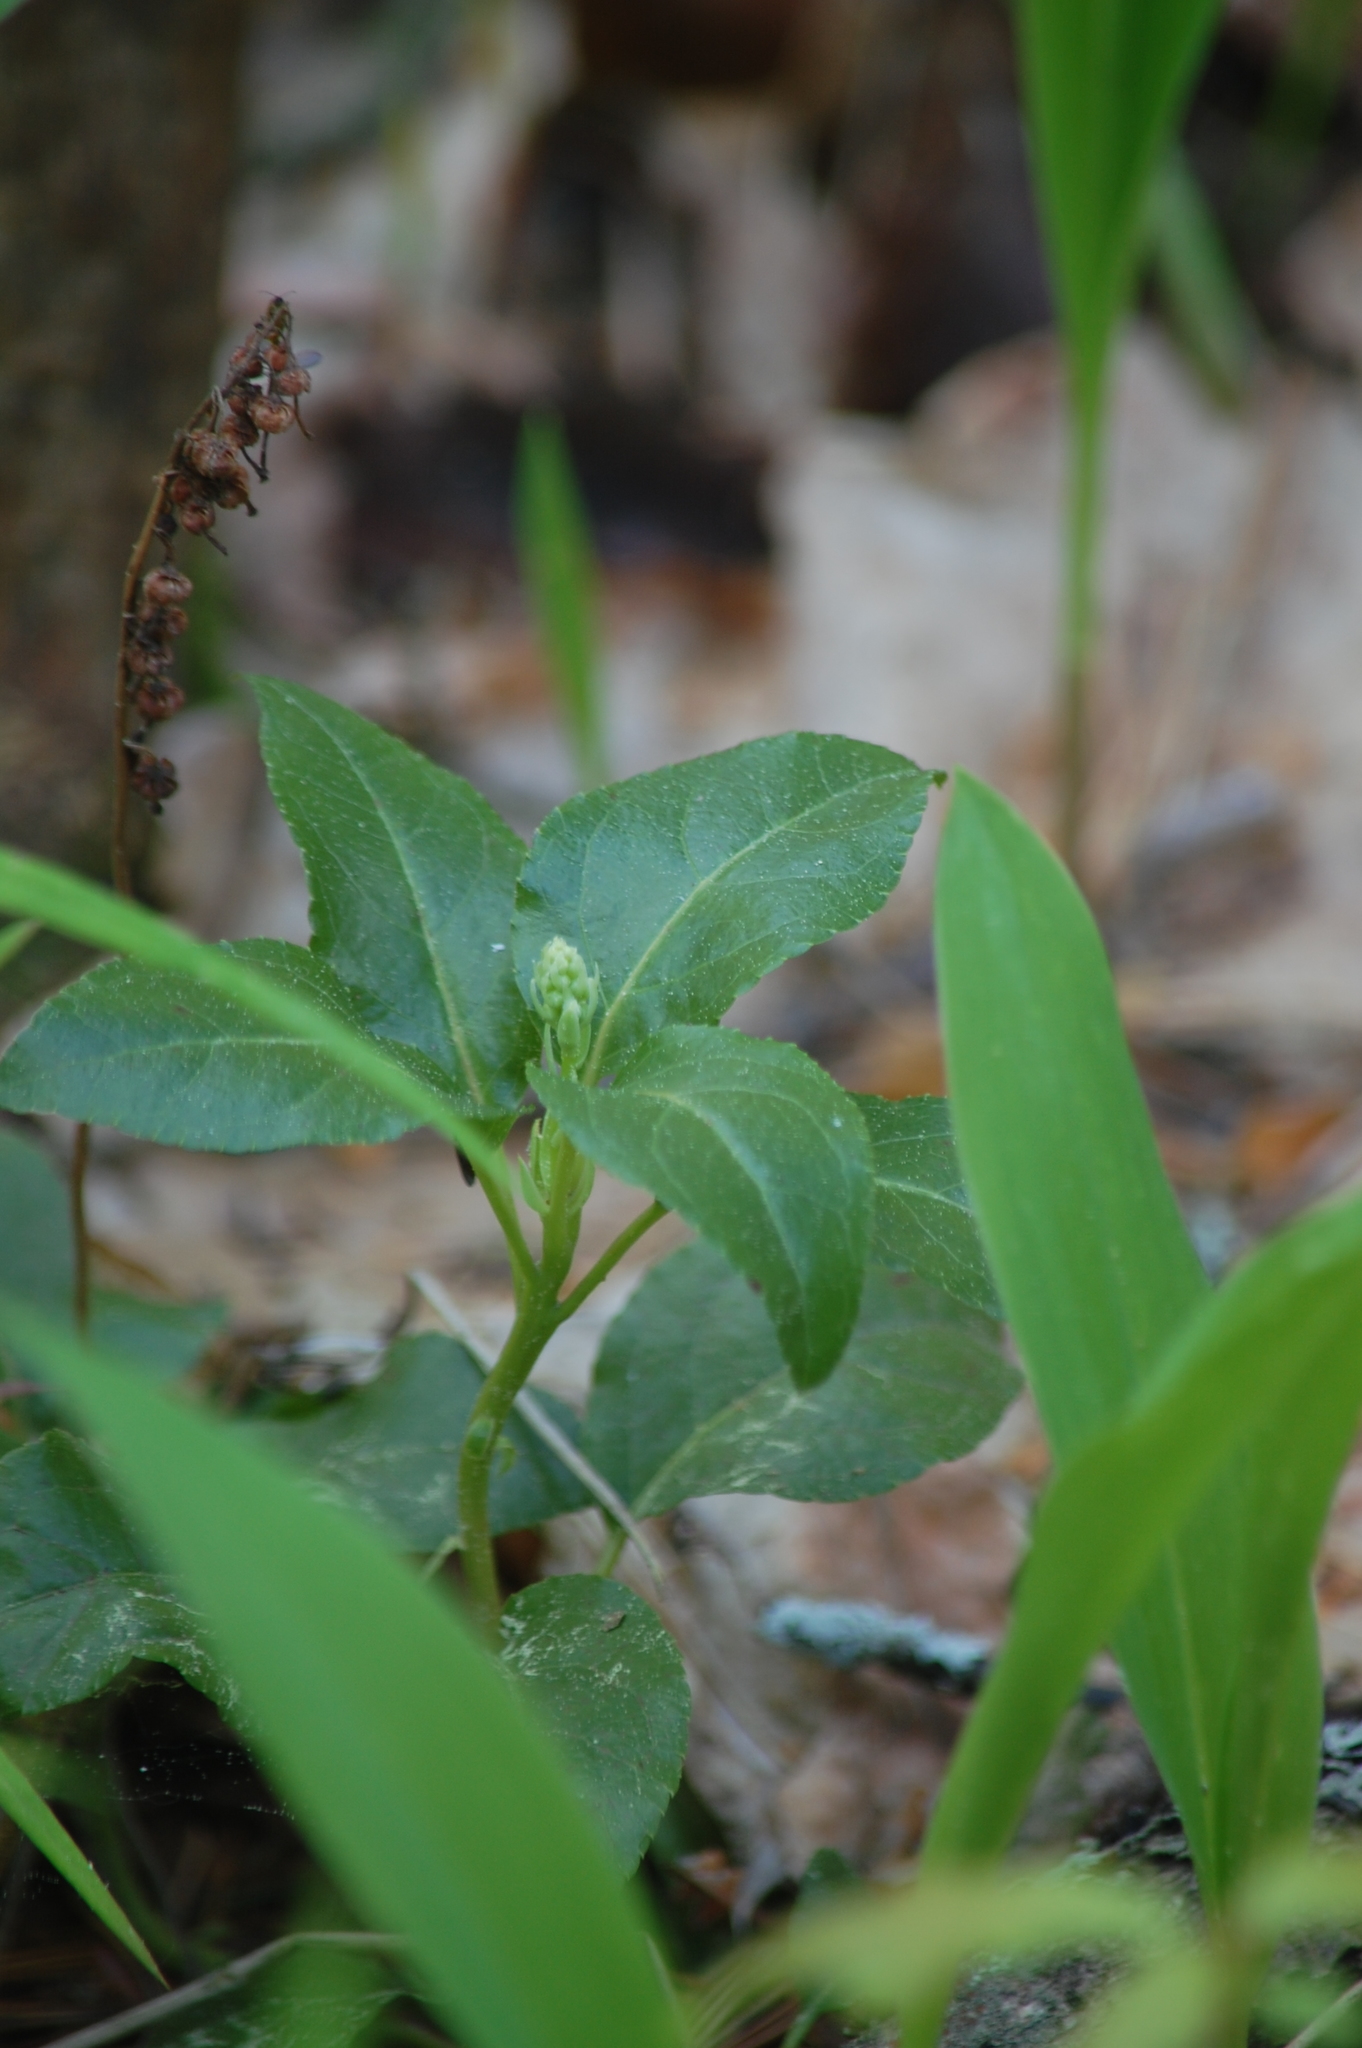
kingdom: Plantae
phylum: Tracheophyta
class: Magnoliopsida
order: Ericales
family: Ericaceae
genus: Orthilia
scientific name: Orthilia secunda
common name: One-sided orthilia
